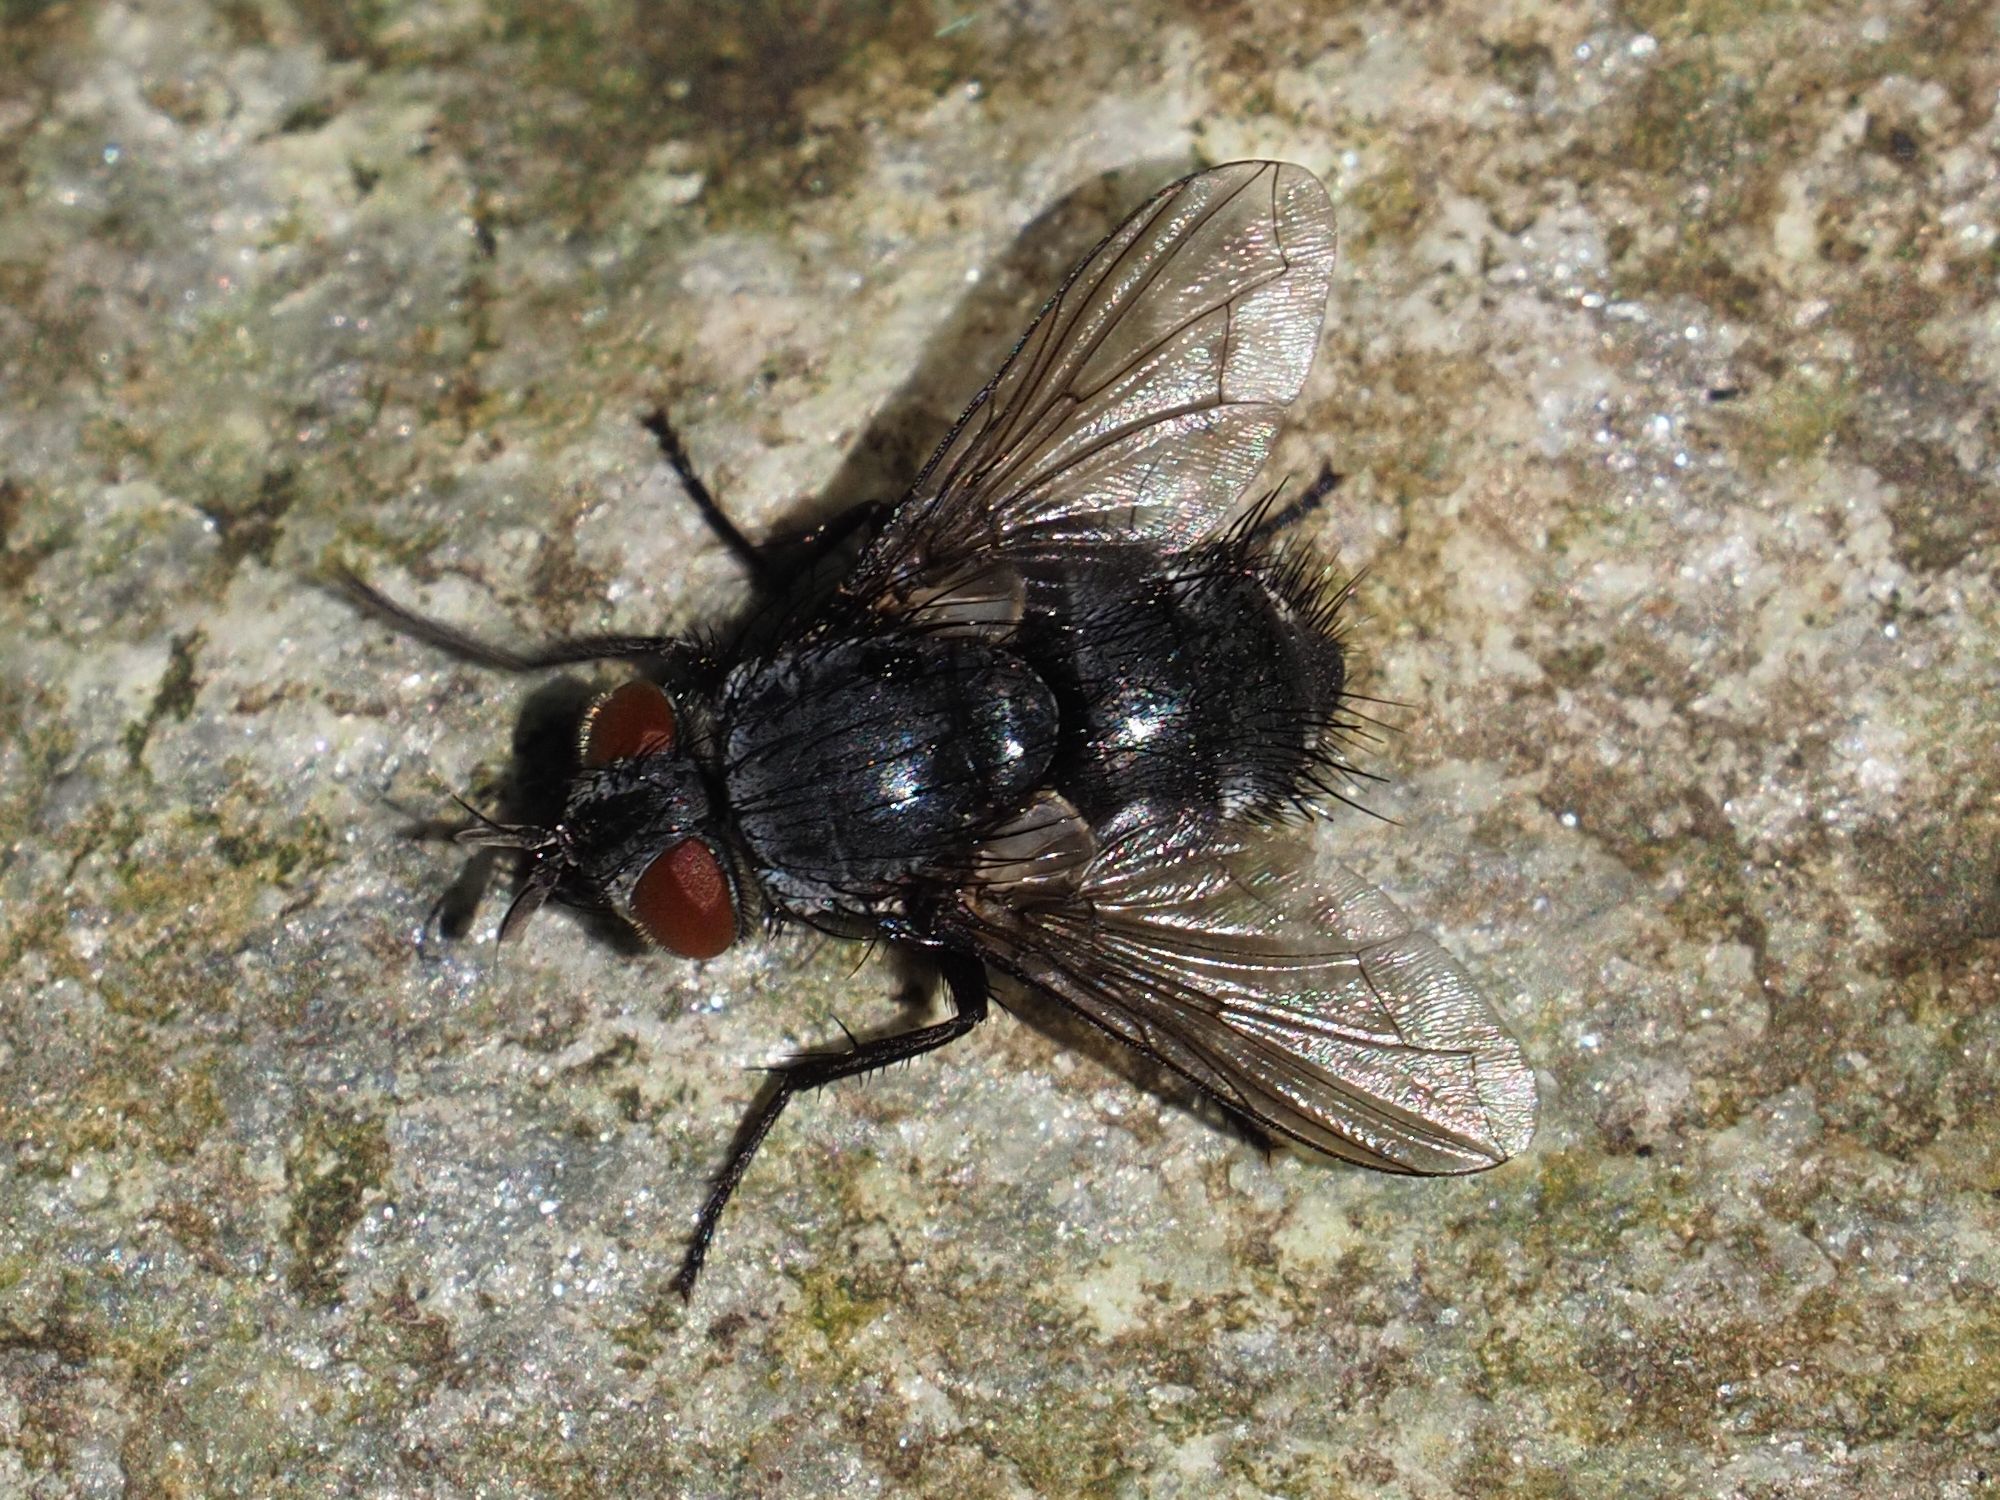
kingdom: Animalia
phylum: Arthropoda
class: Insecta
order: Diptera
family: Tachinidae
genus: Epicampocera
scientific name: Epicampocera succincta
